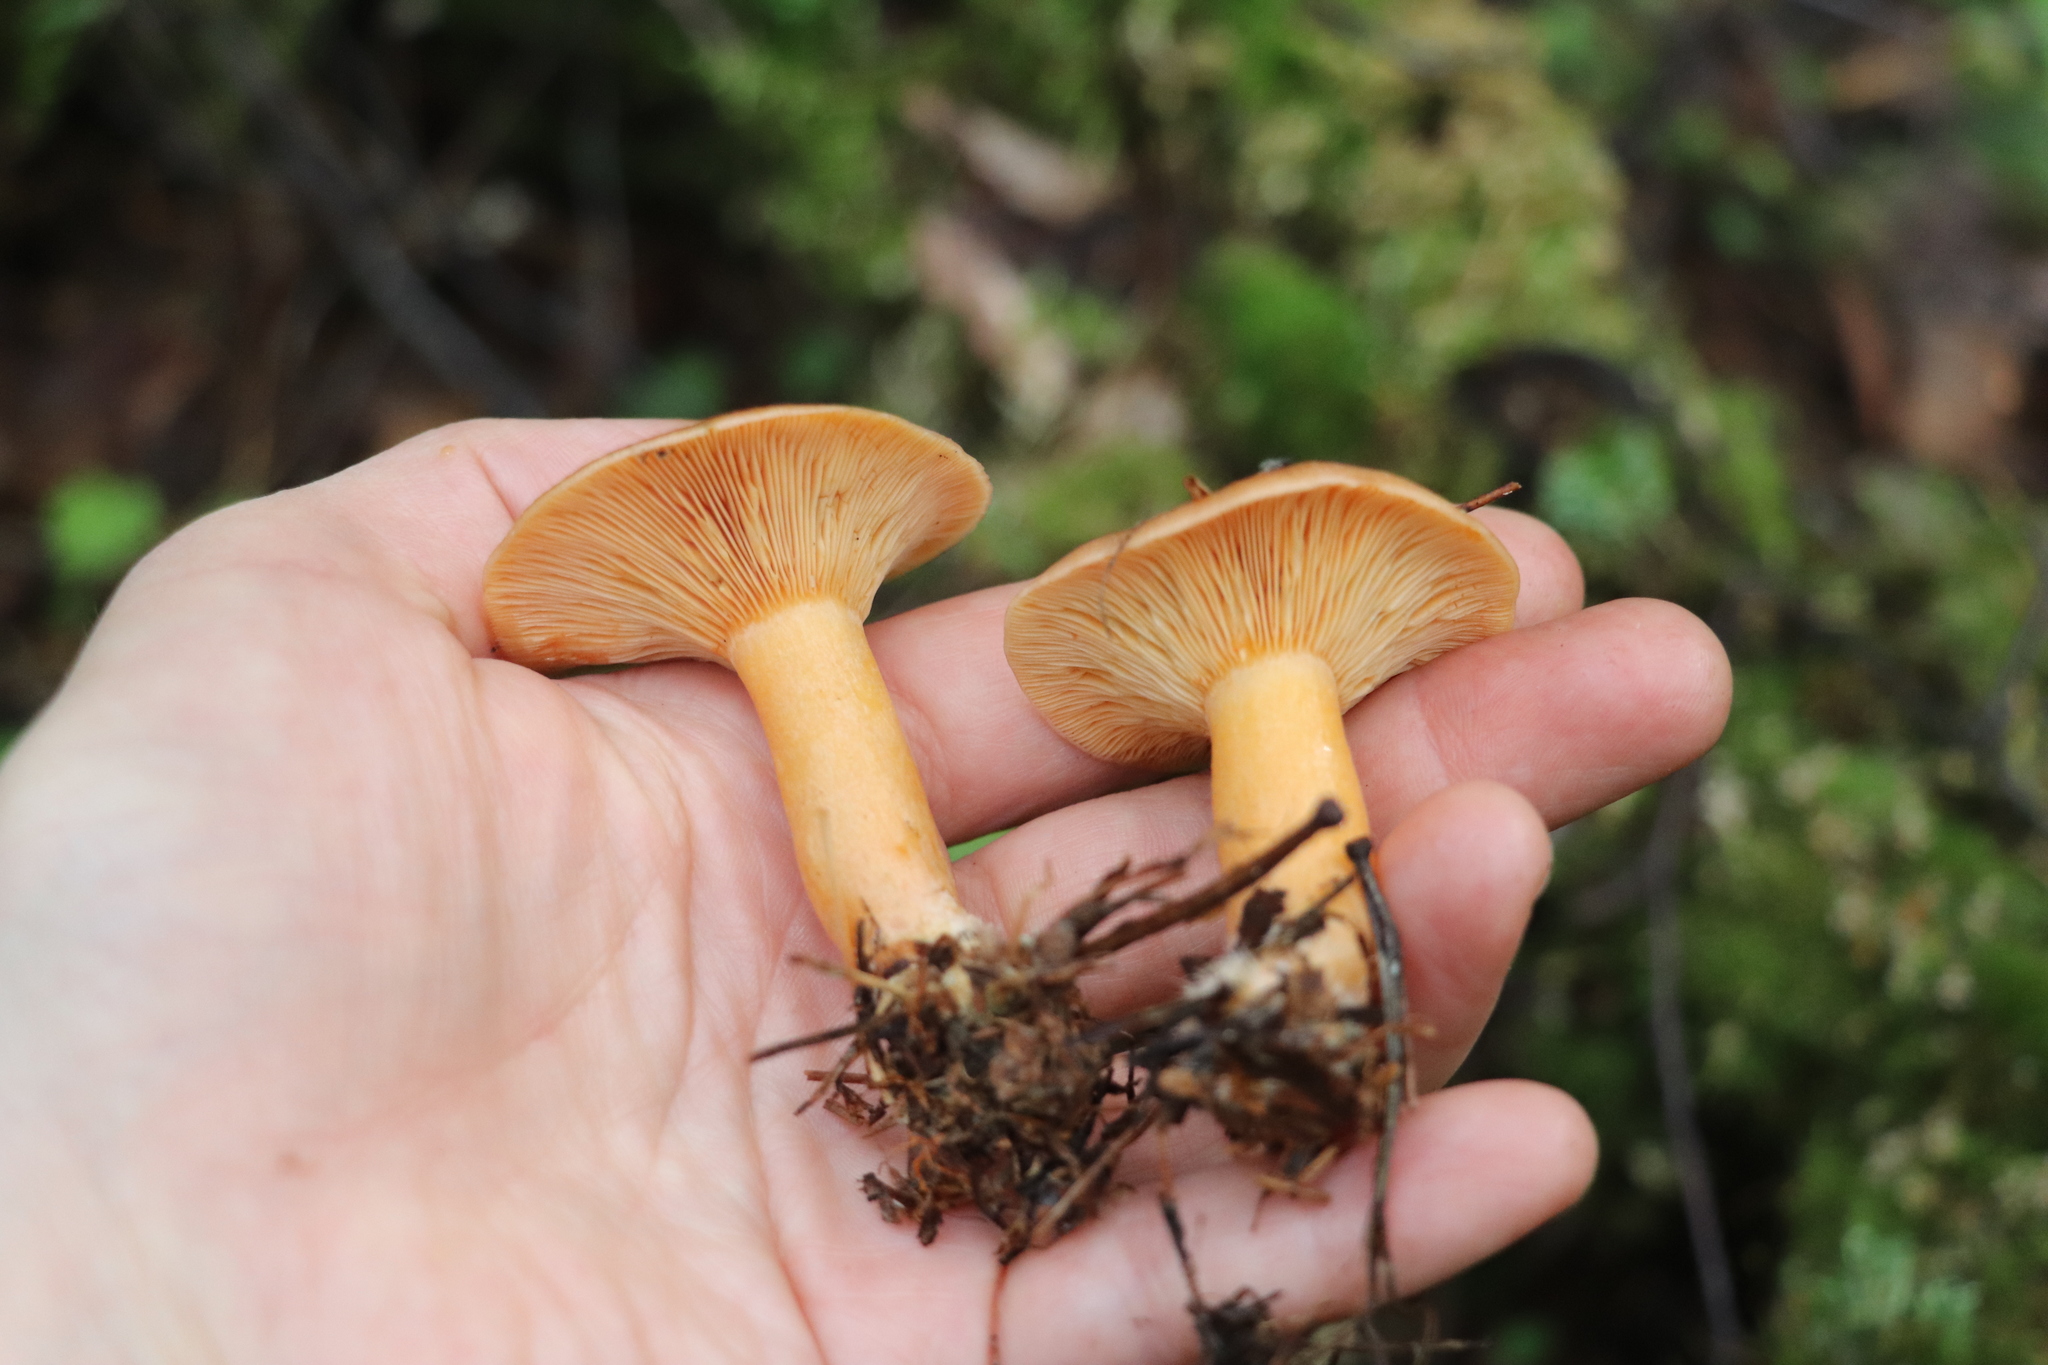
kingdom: Fungi
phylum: Basidiomycota
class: Agaricomycetes
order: Russulales
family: Russulaceae
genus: Lactarius
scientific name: Lactarius deterrimus
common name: False saffron milkcap
